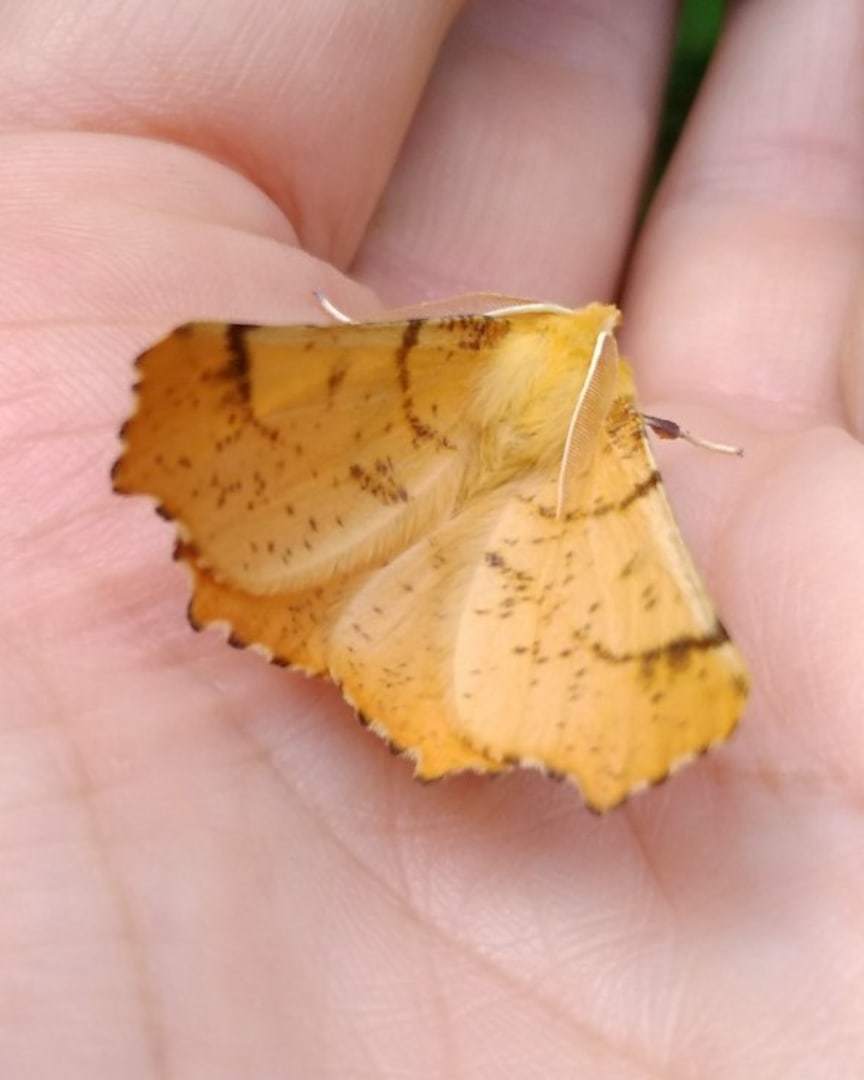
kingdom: Animalia
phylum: Arthropoda
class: Insecta
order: Lepidoptera
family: Geometridae
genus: Ennomos
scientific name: Ennomos autumnaria
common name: Large thorn
